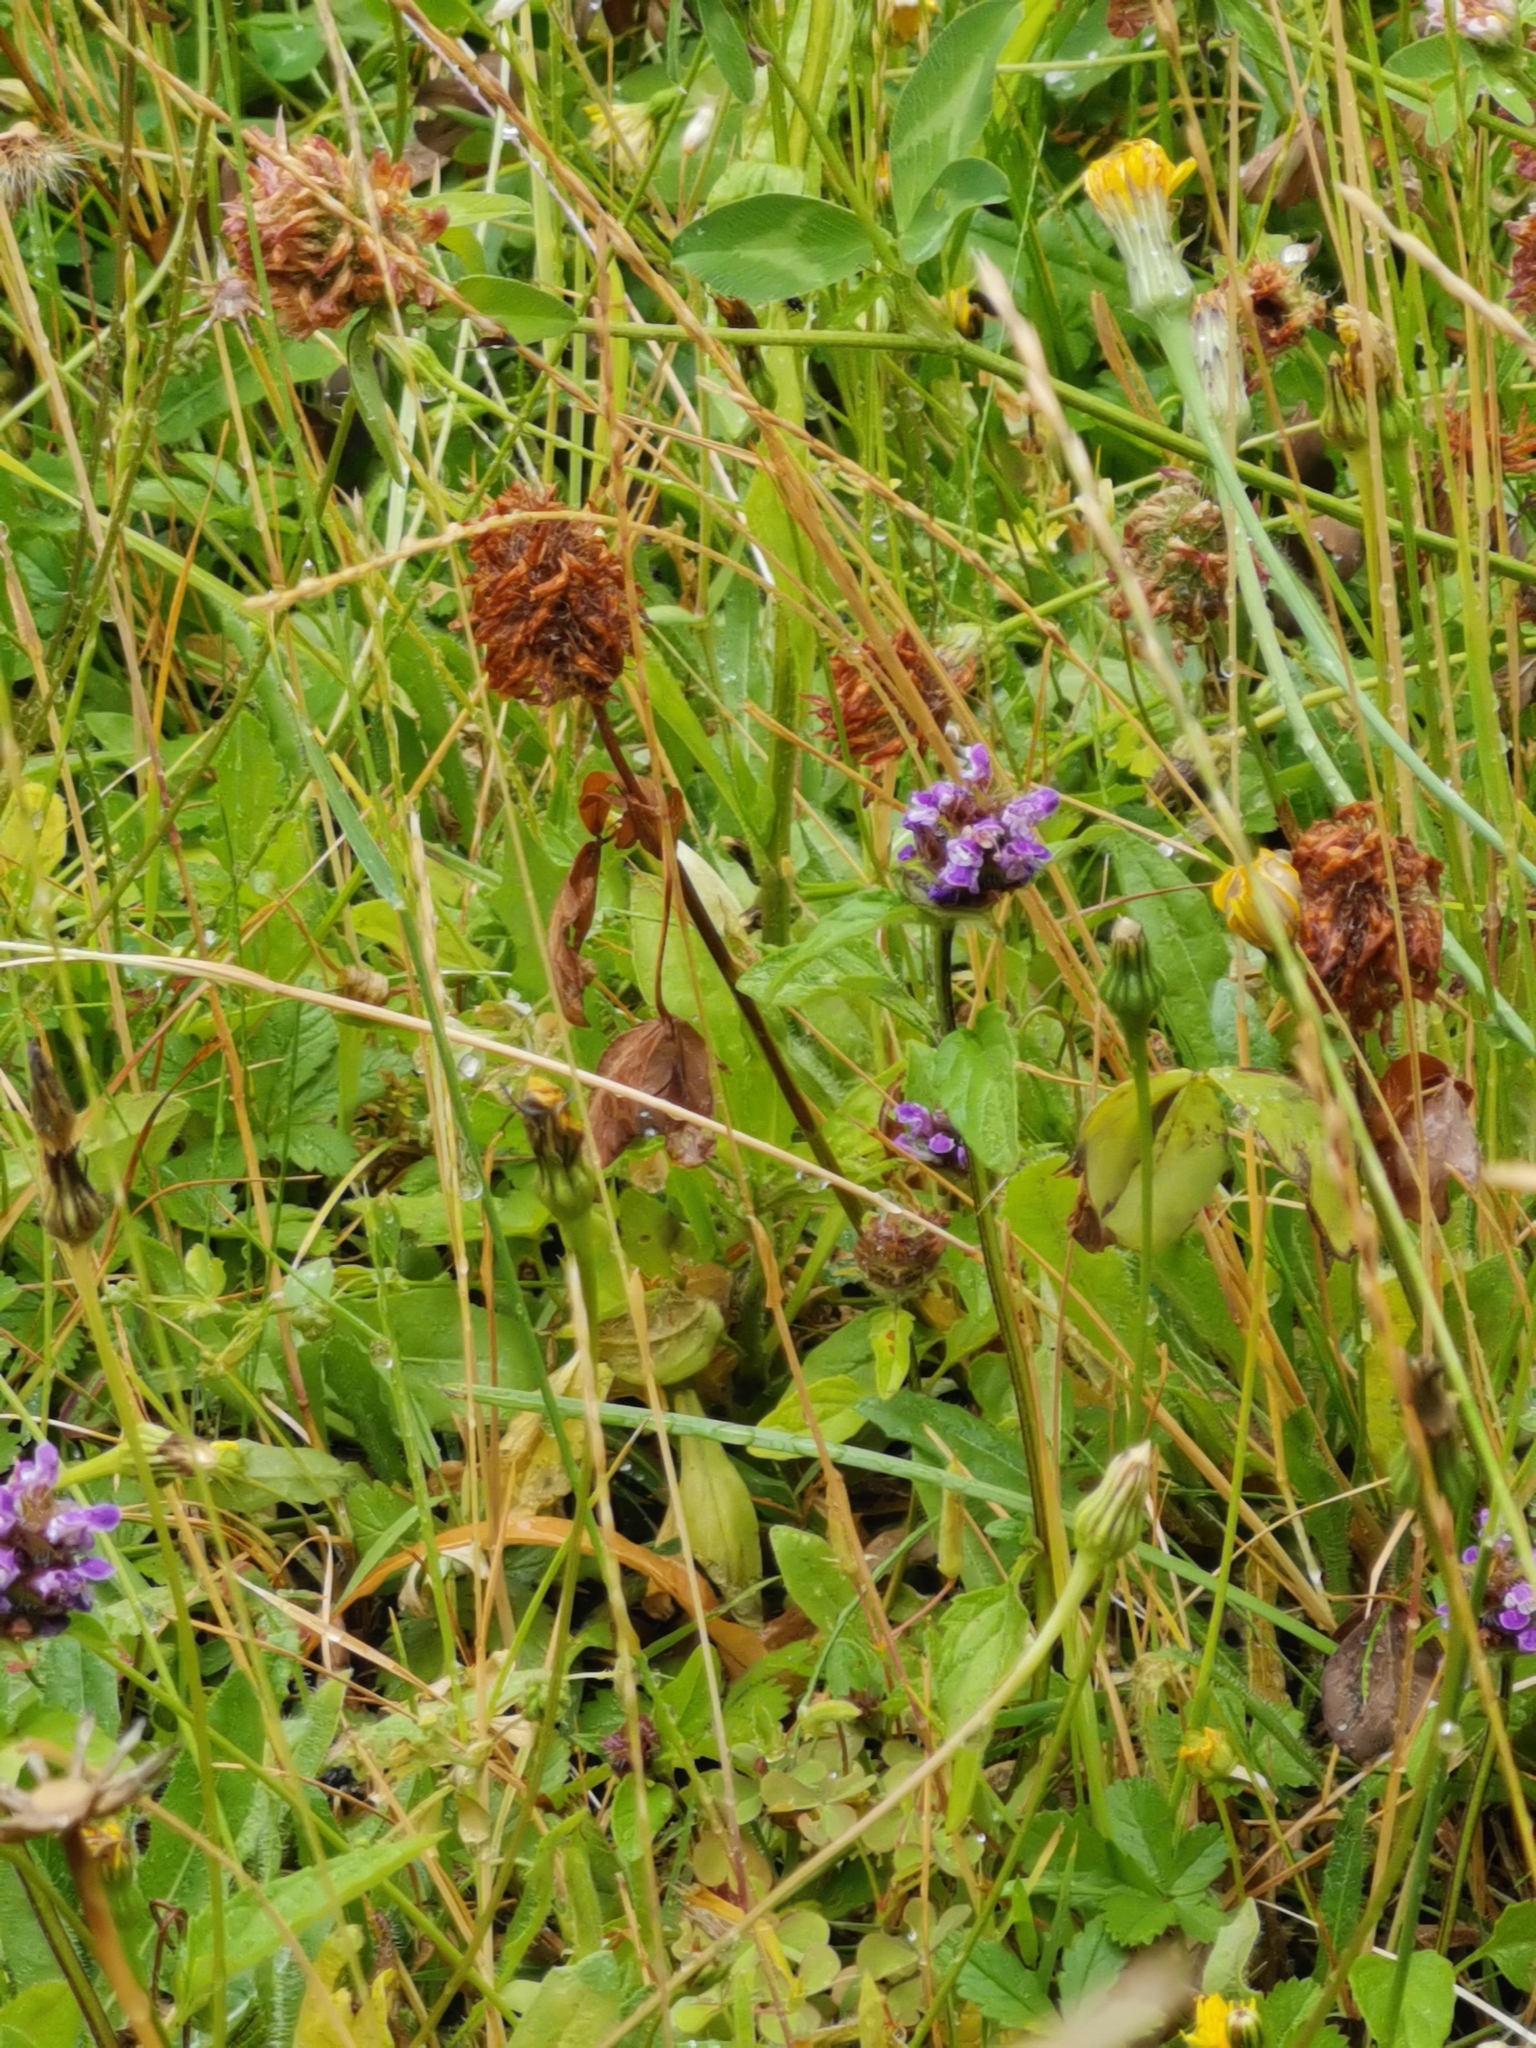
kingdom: Plantae
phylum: Tracheophyta
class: Magnoliopsida
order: Lamiales
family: Lamiaceae
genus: Prunella
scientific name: Prunella vulgaris
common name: Heal-all
